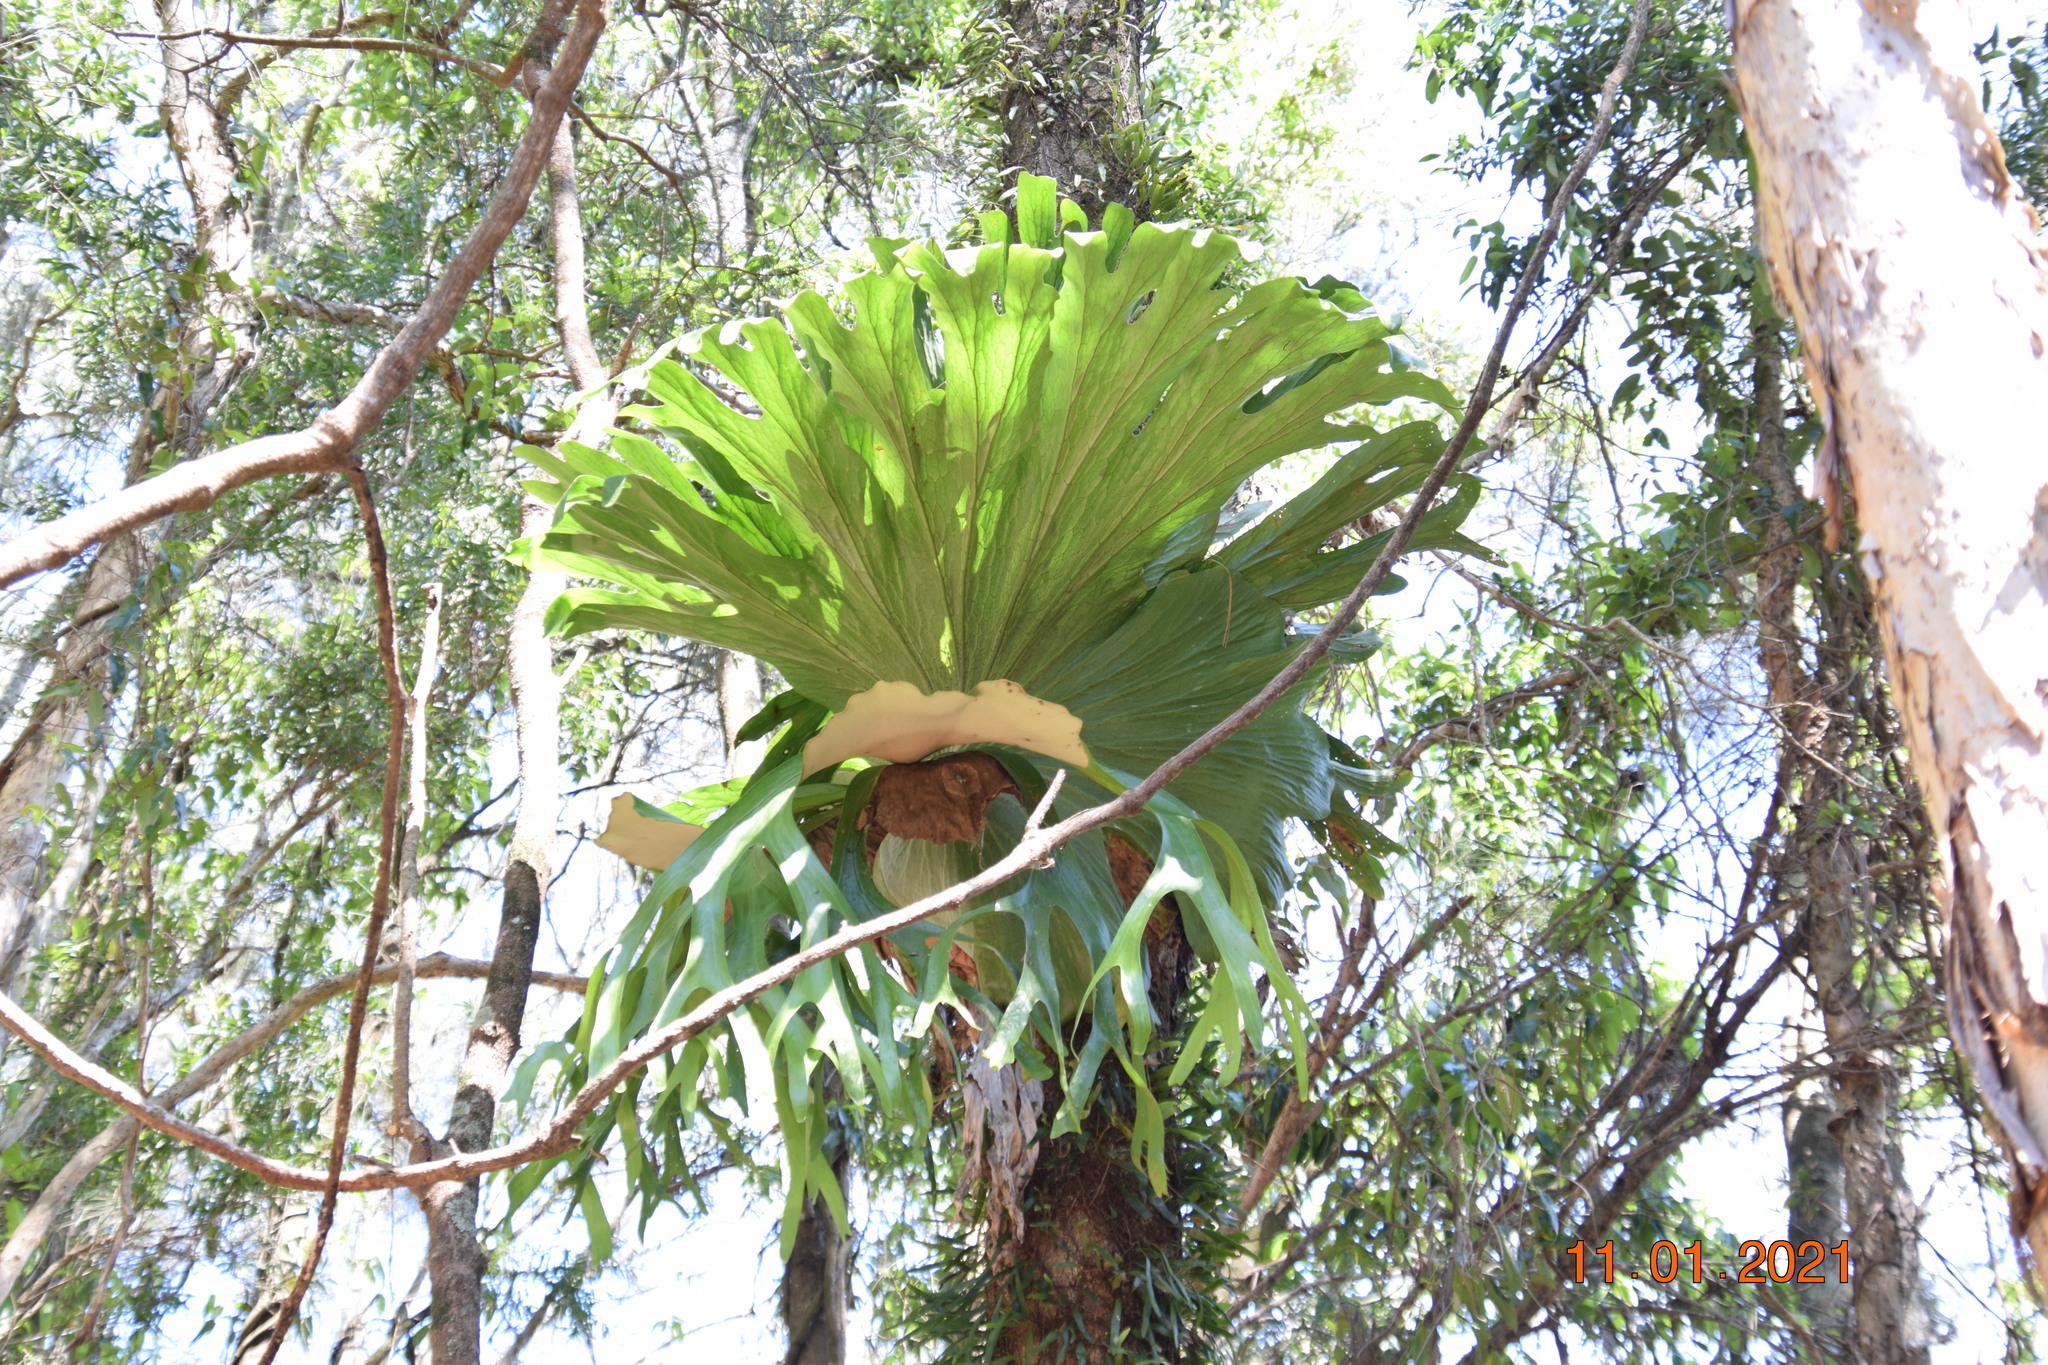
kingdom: Plantae
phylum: Tracheophyta
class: Polypodiopsida
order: Polypodiales
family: Polypodiaceae
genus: Platycerium
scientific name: Platycerium superbum
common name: Staghorn fern
